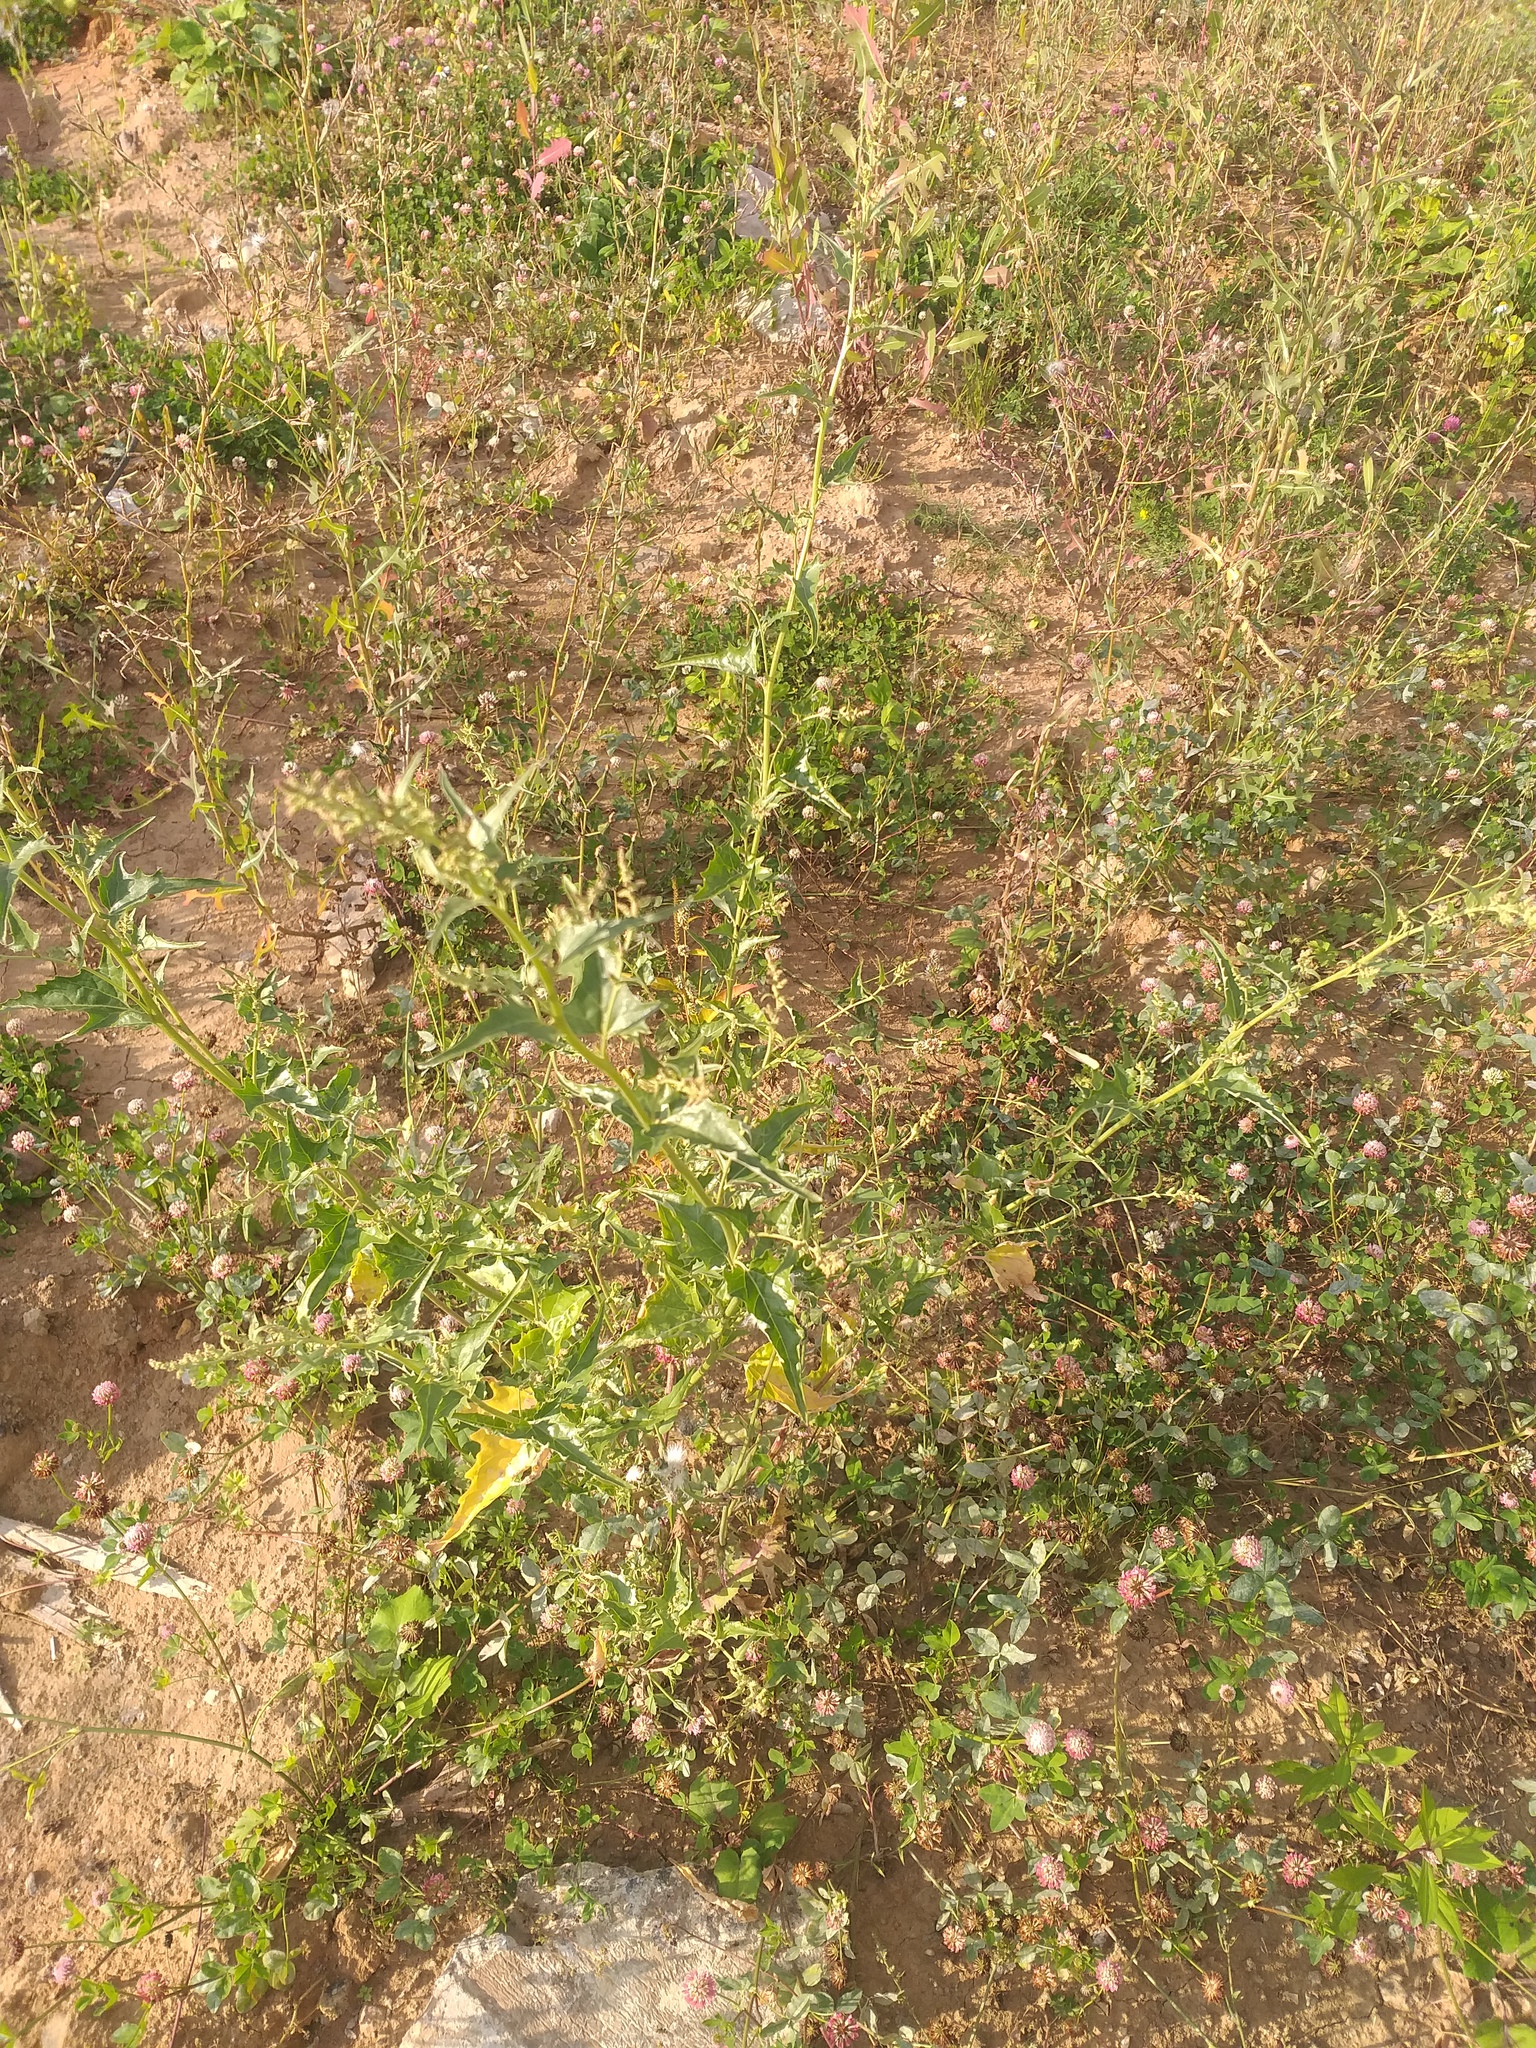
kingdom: Plantae
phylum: Tracheophyta
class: Magnoliopsida
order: Caryophyllales
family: Amaranthaceae
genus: Atriplex
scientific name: Atriplex sagittata
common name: Purple orache
